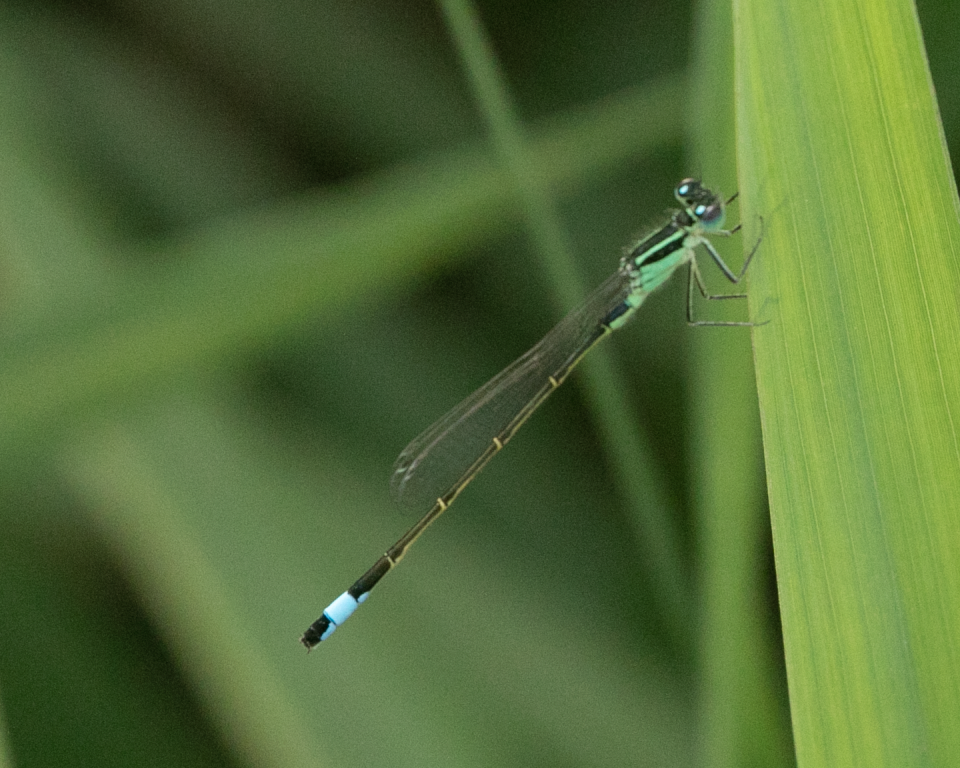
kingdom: Animalia
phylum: Arthropoda
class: Insecta
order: Odonata
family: Coenagrionidae
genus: Ischnura
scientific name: Ischnura elegans
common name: Blue-tailed damselfly
